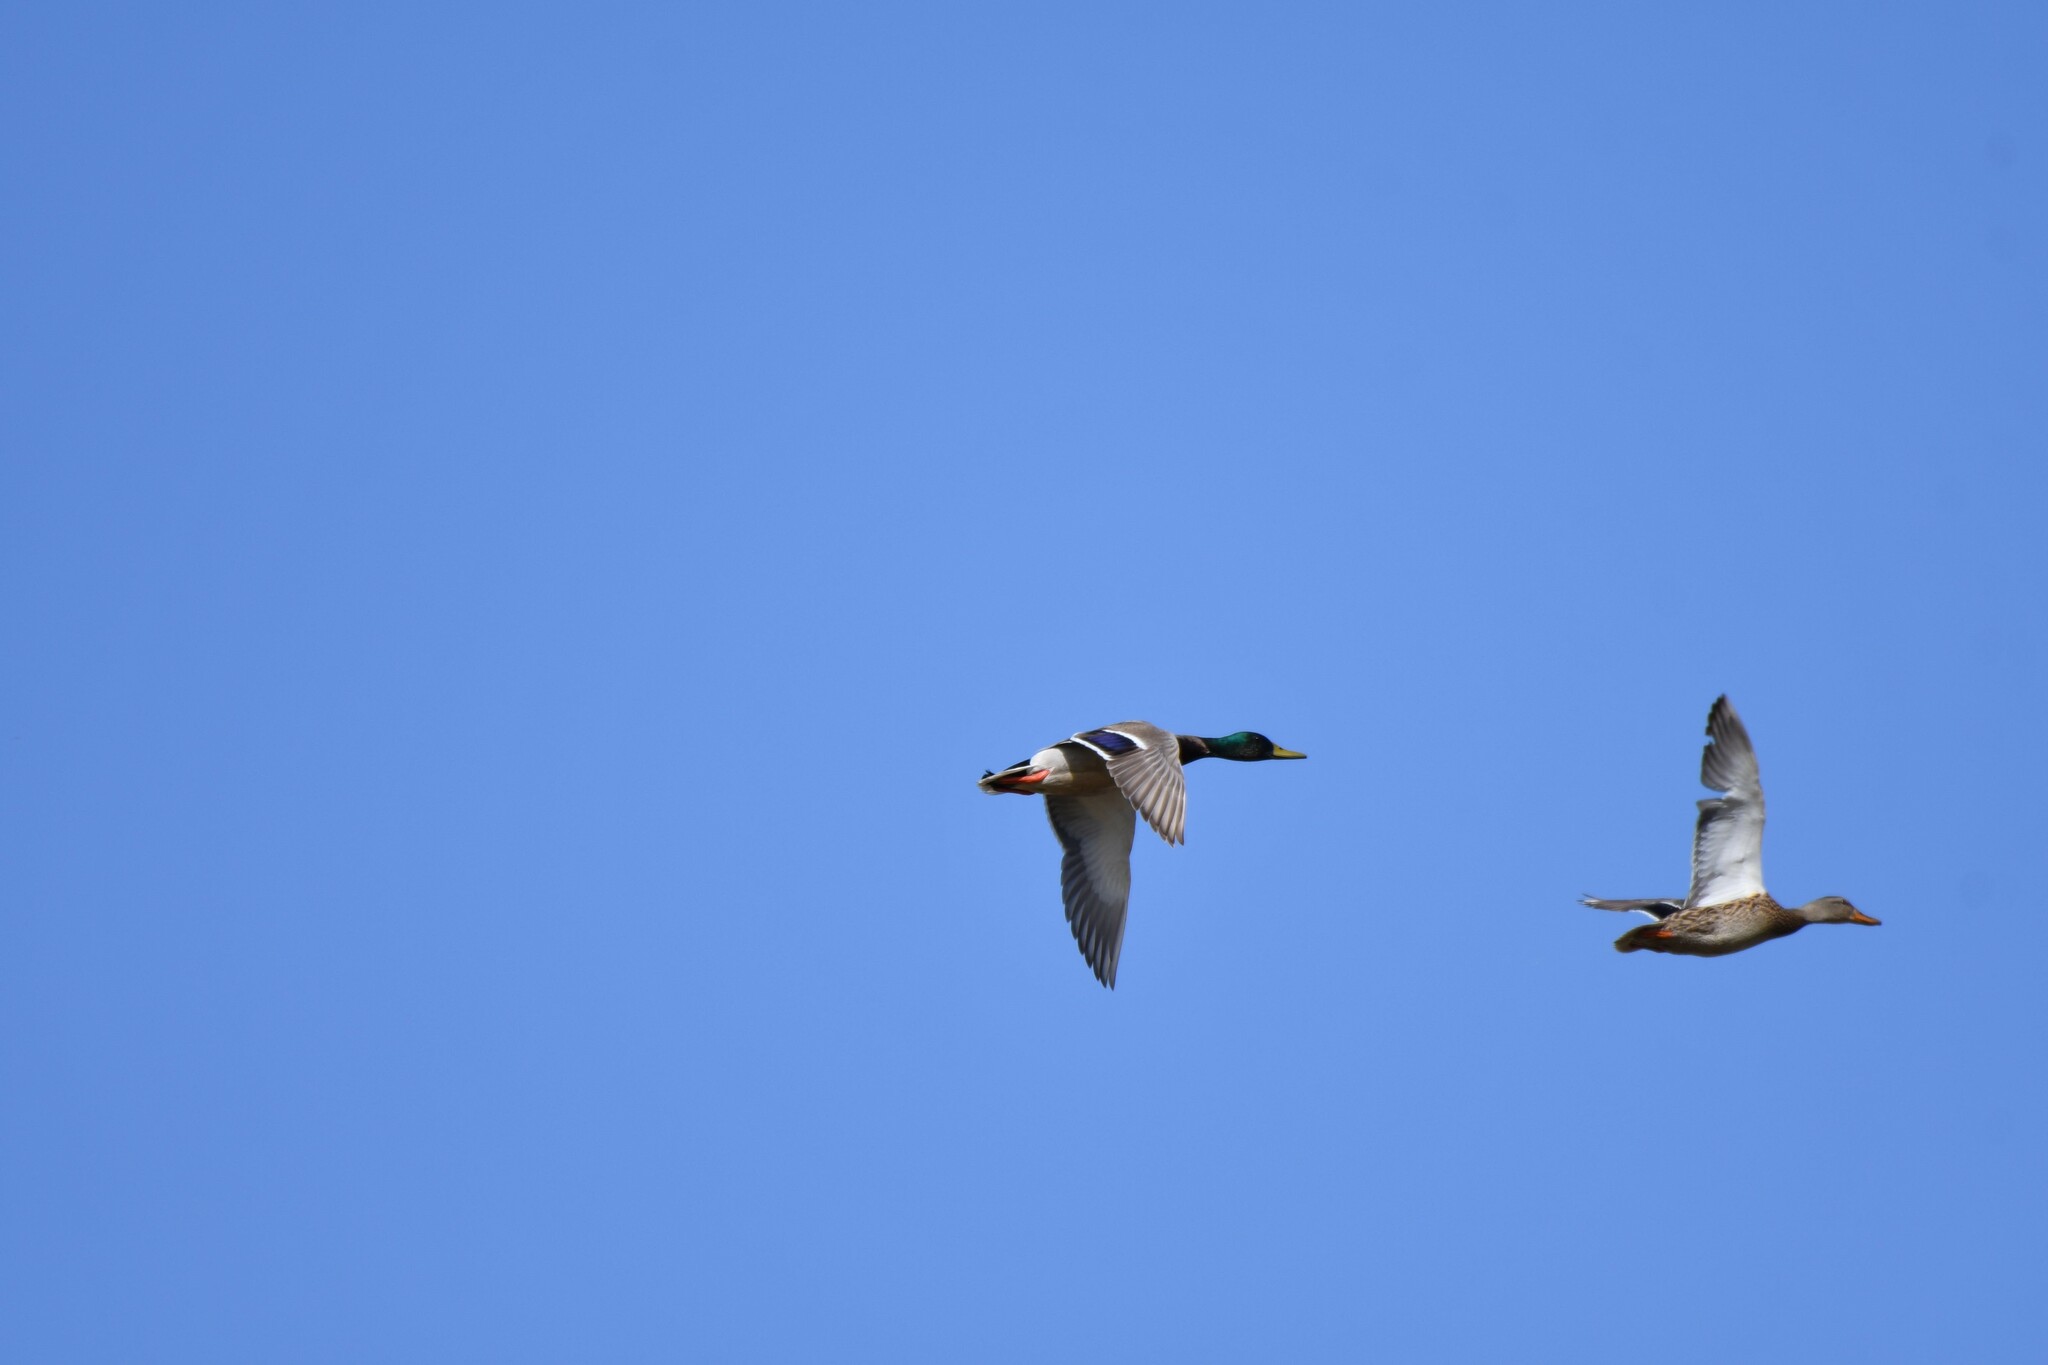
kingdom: Animalia
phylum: Chordata
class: Aves
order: Anseriformes
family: Anatidae
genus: Anas
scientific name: Anas platyrhynchos
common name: Mallard
